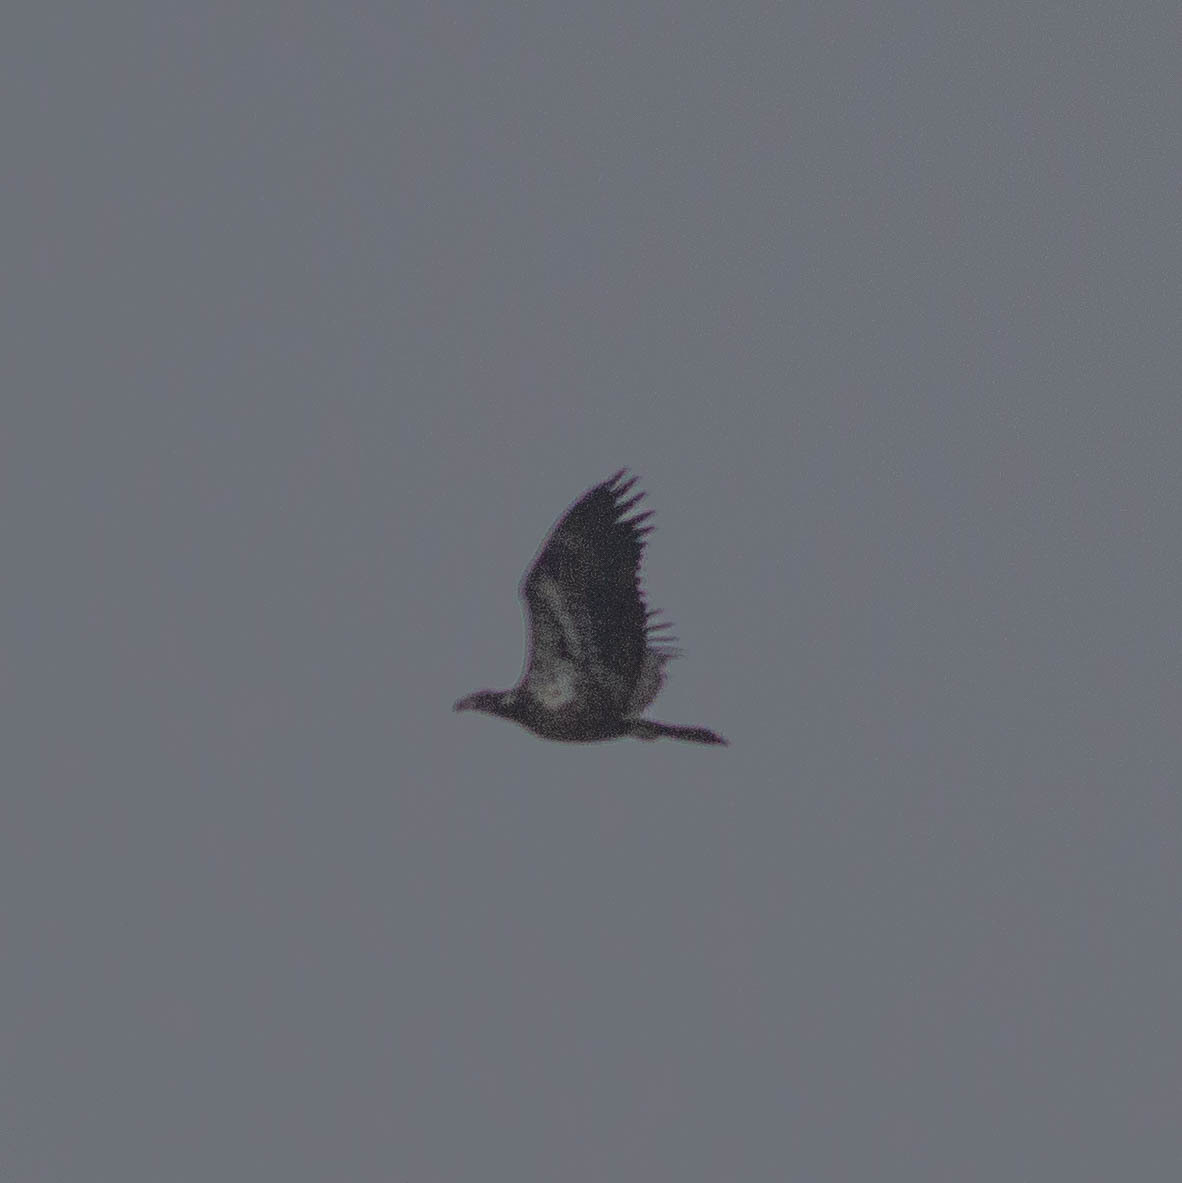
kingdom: Animalia
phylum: Chordata
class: Aves
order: Accipitriformes
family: Accipitridae
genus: Haliaeetus
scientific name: Haliaeetus leucocephalus
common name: Bald eagle
